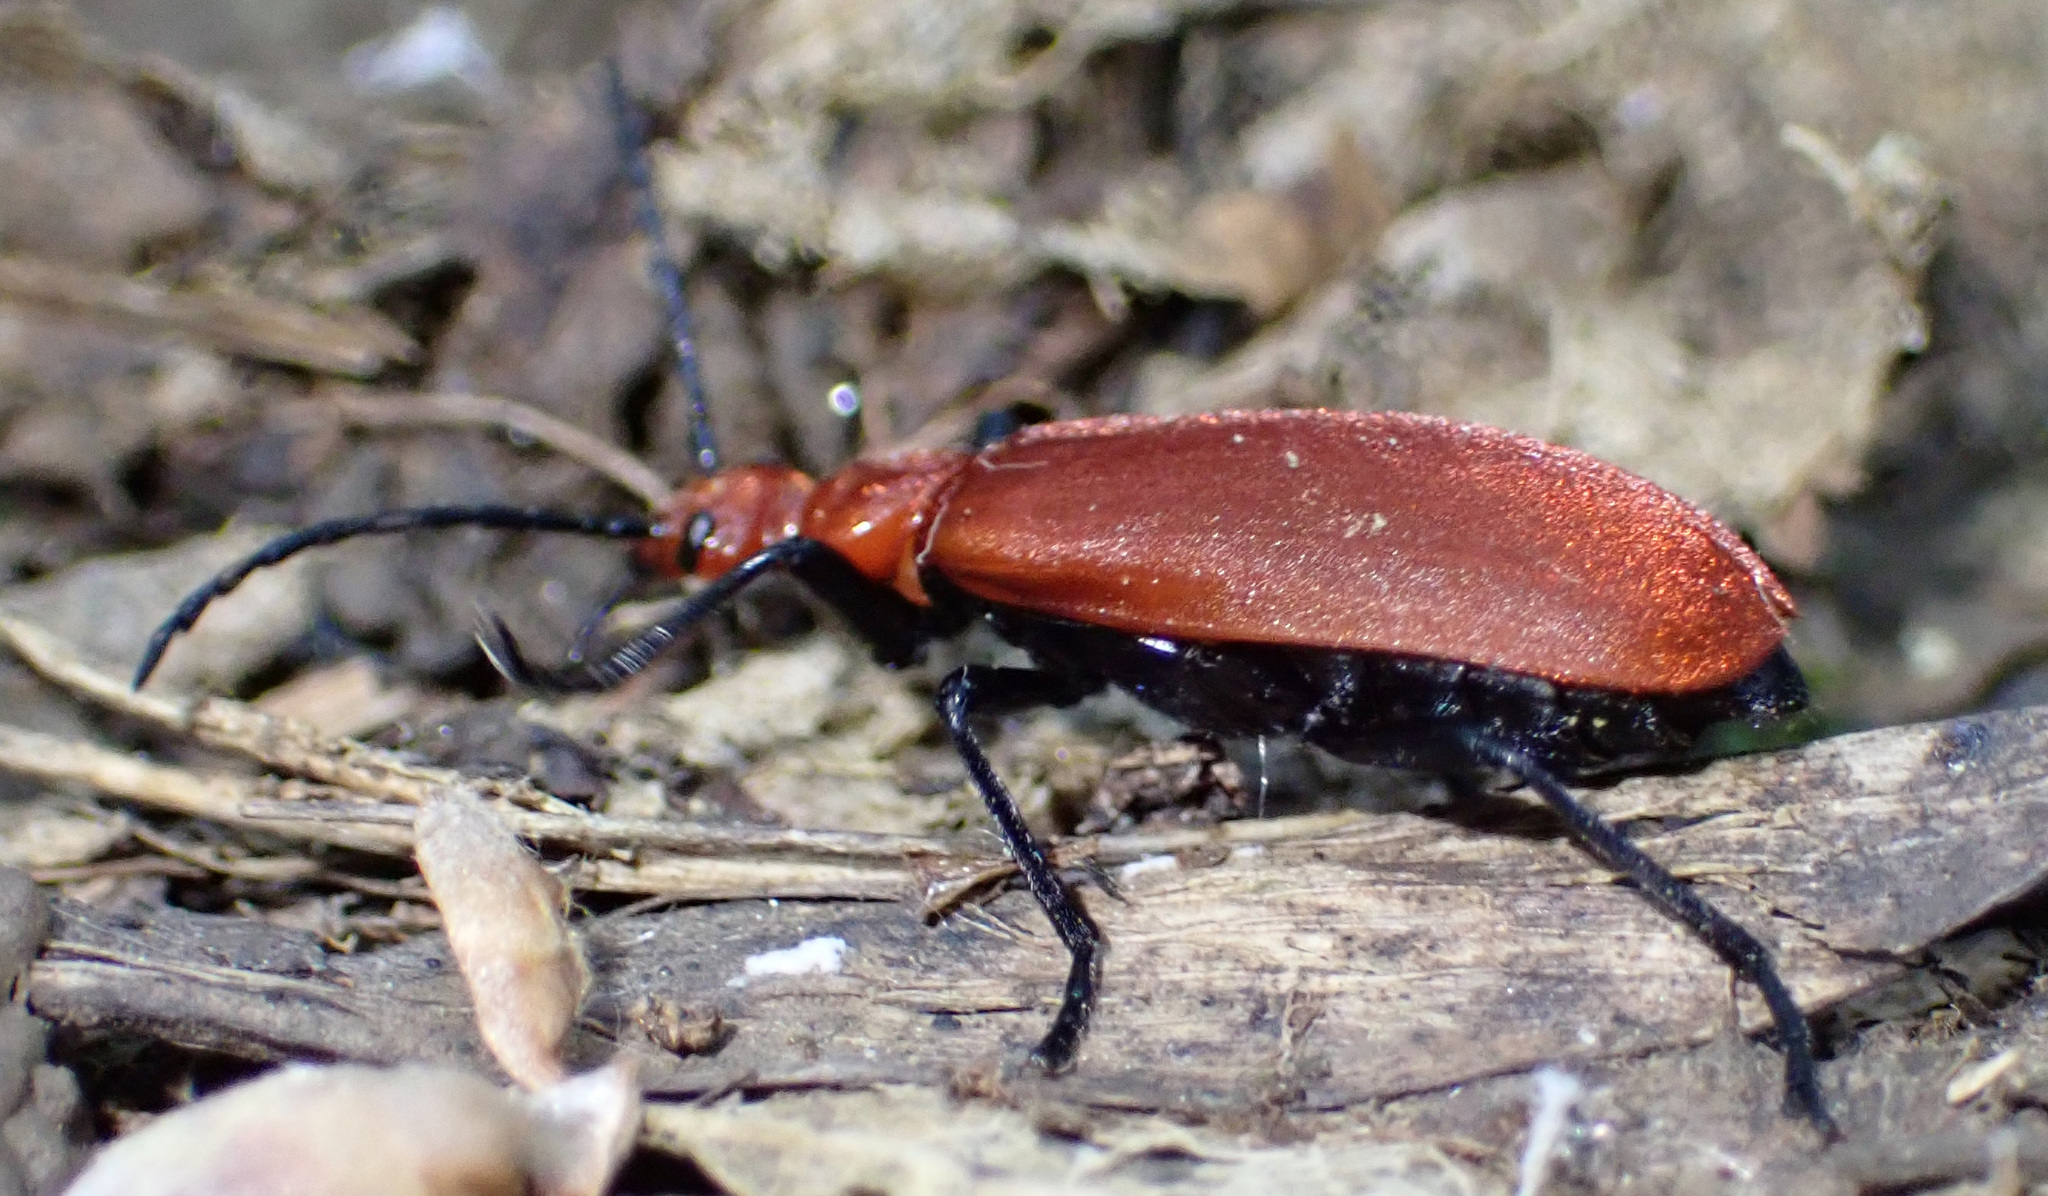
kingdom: Animalia
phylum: Arthropoda
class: Insecta
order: Coleoptera
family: Pyrochroidae
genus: Pyrochroa
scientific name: Pyrochroa serraticornis
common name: Red-headed cardinal beetle
